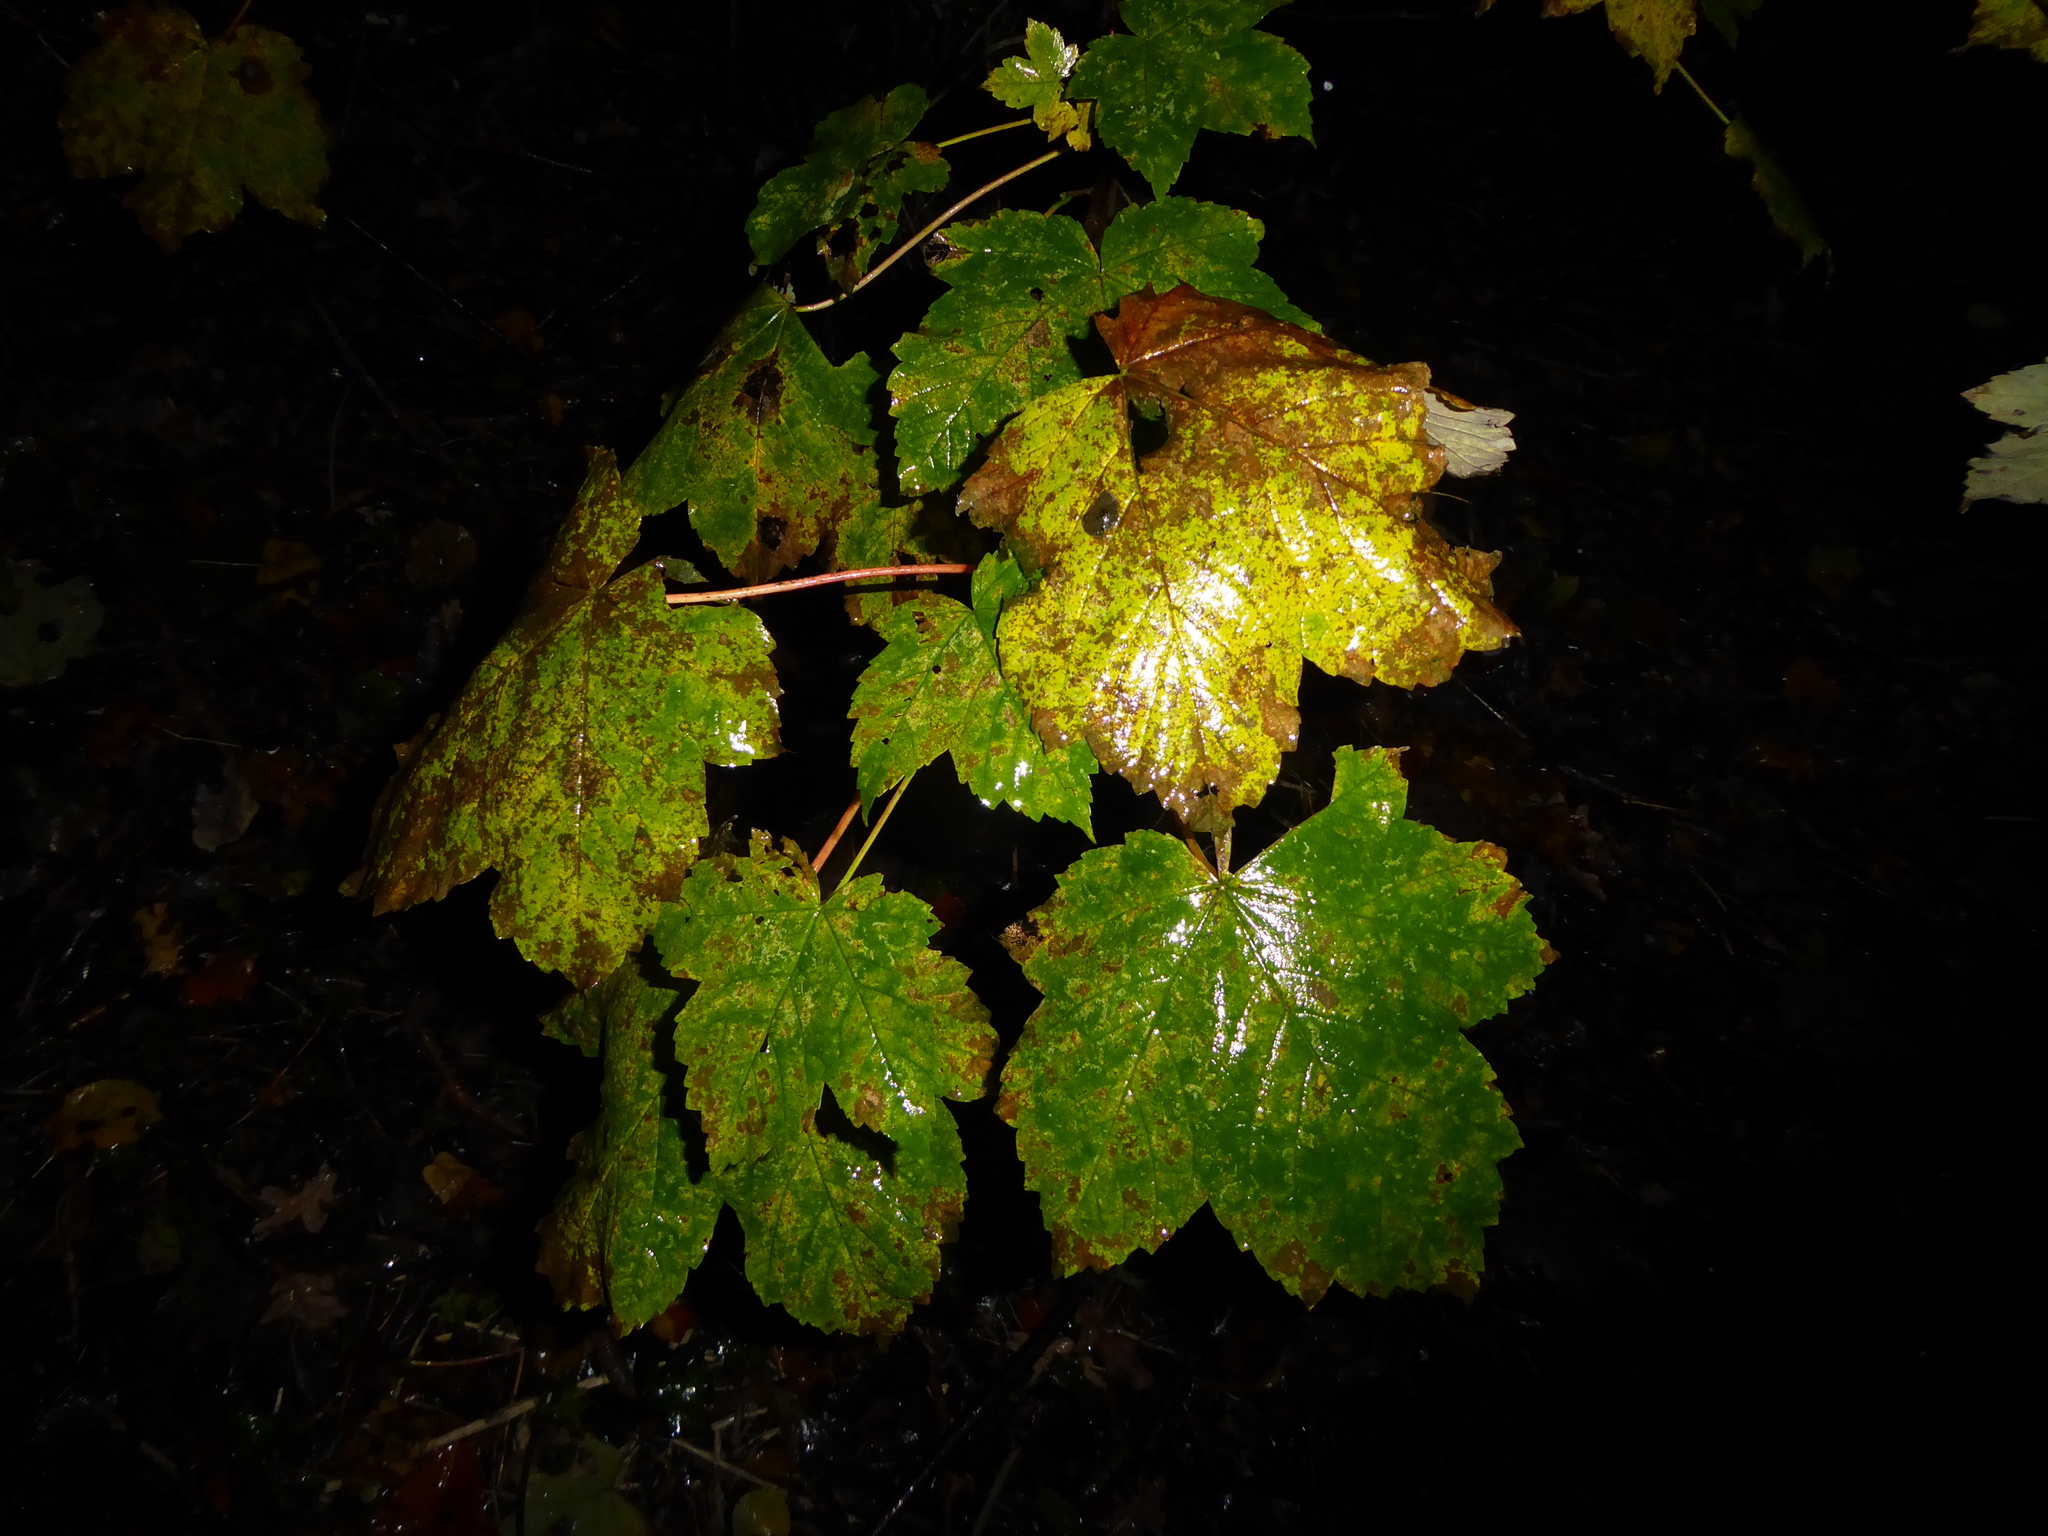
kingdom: Plantae
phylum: Tracheophyta
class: Magnoliopsida
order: Sapindales
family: Sapindaceae
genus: Acer
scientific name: Acer pseudoplatanus
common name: Sycamore
